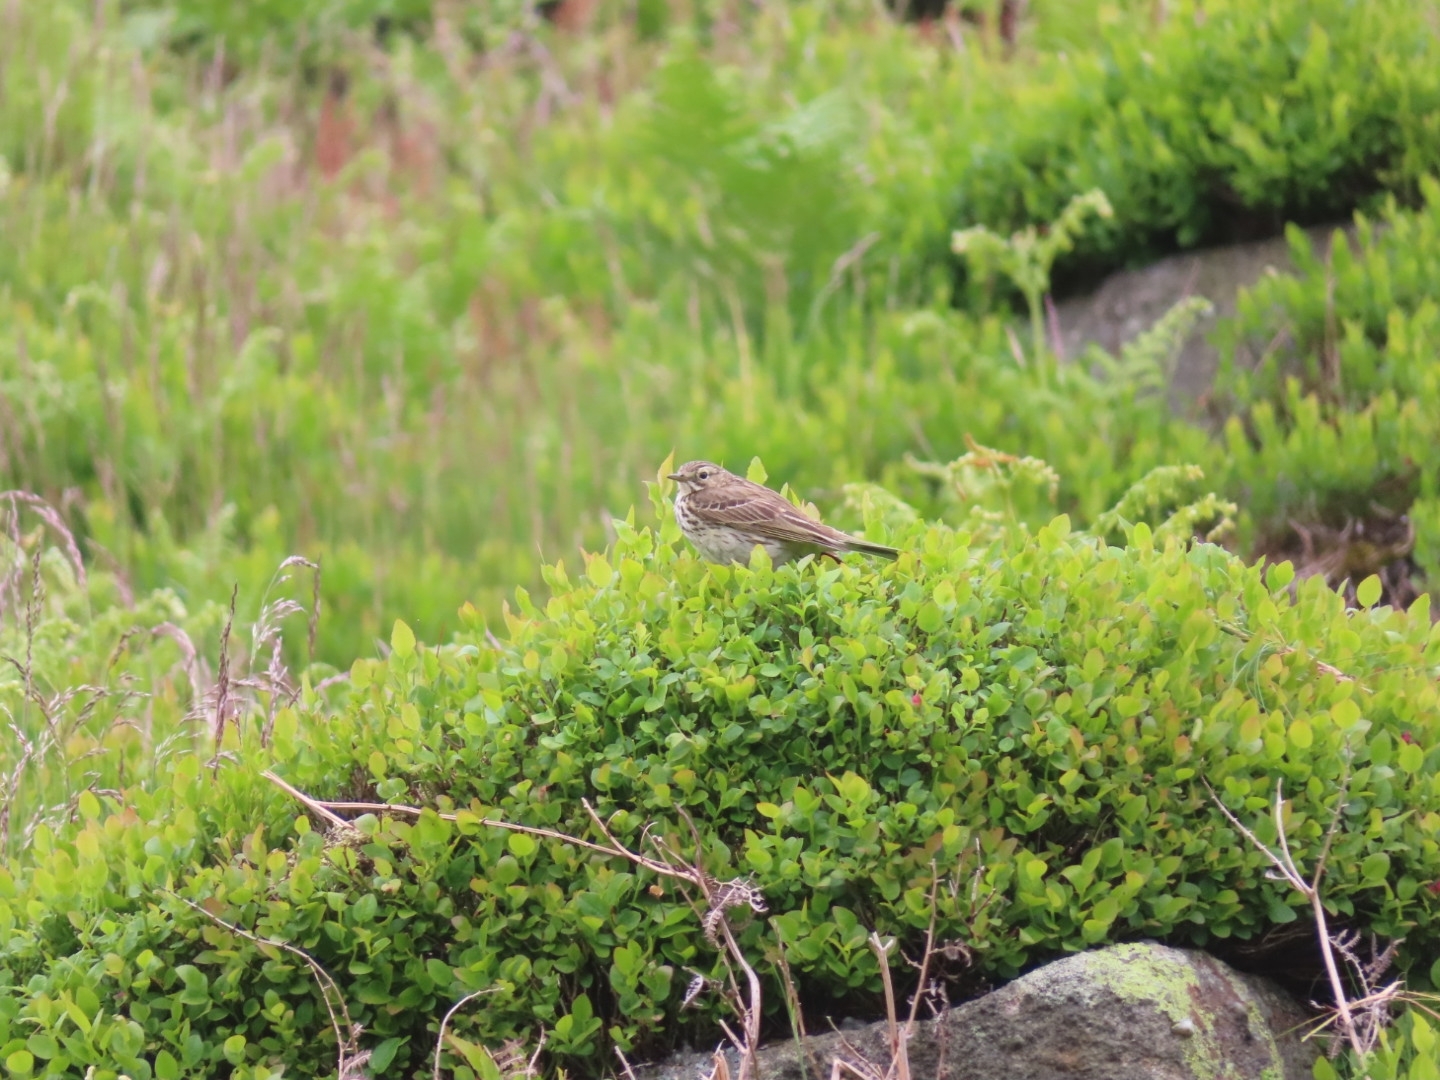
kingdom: Animalia
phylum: Chordata
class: Aves
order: Passeriformes
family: Motacillidae
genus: Anthus
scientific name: Anthus pratensis
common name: Meadow pipit
